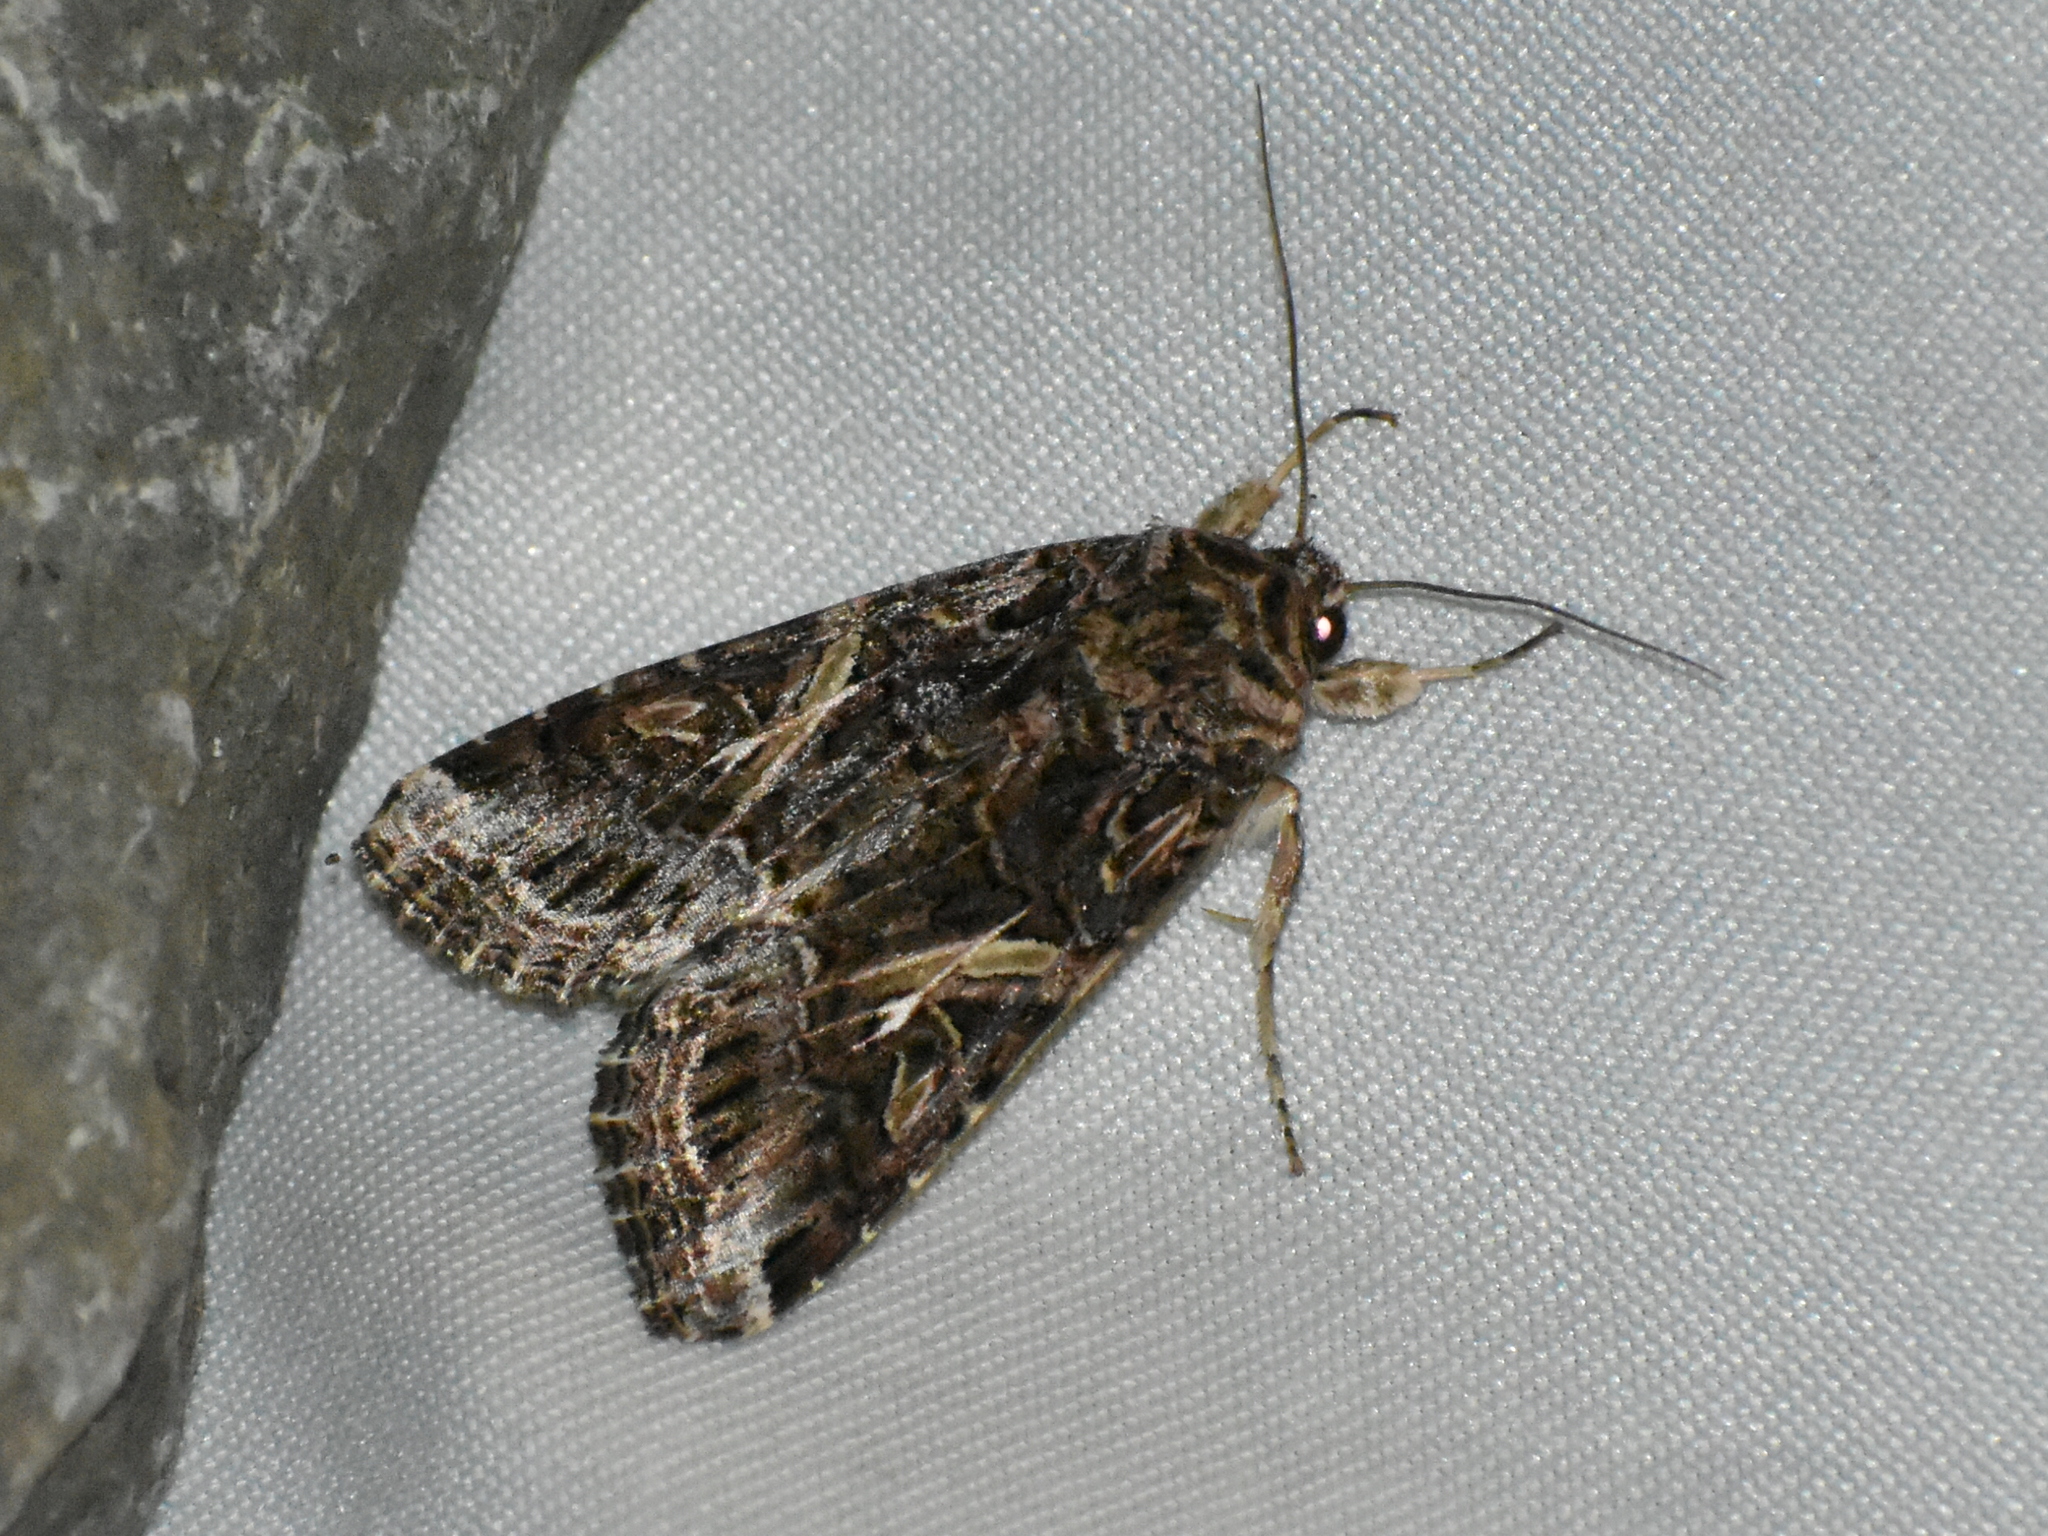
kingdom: Animalia
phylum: Arthropoda
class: Insecta
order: Lepidoptera
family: Noctuidae
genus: Spodoptera
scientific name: Spodoptera ornithogalli
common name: Yellow-striped armyworm
